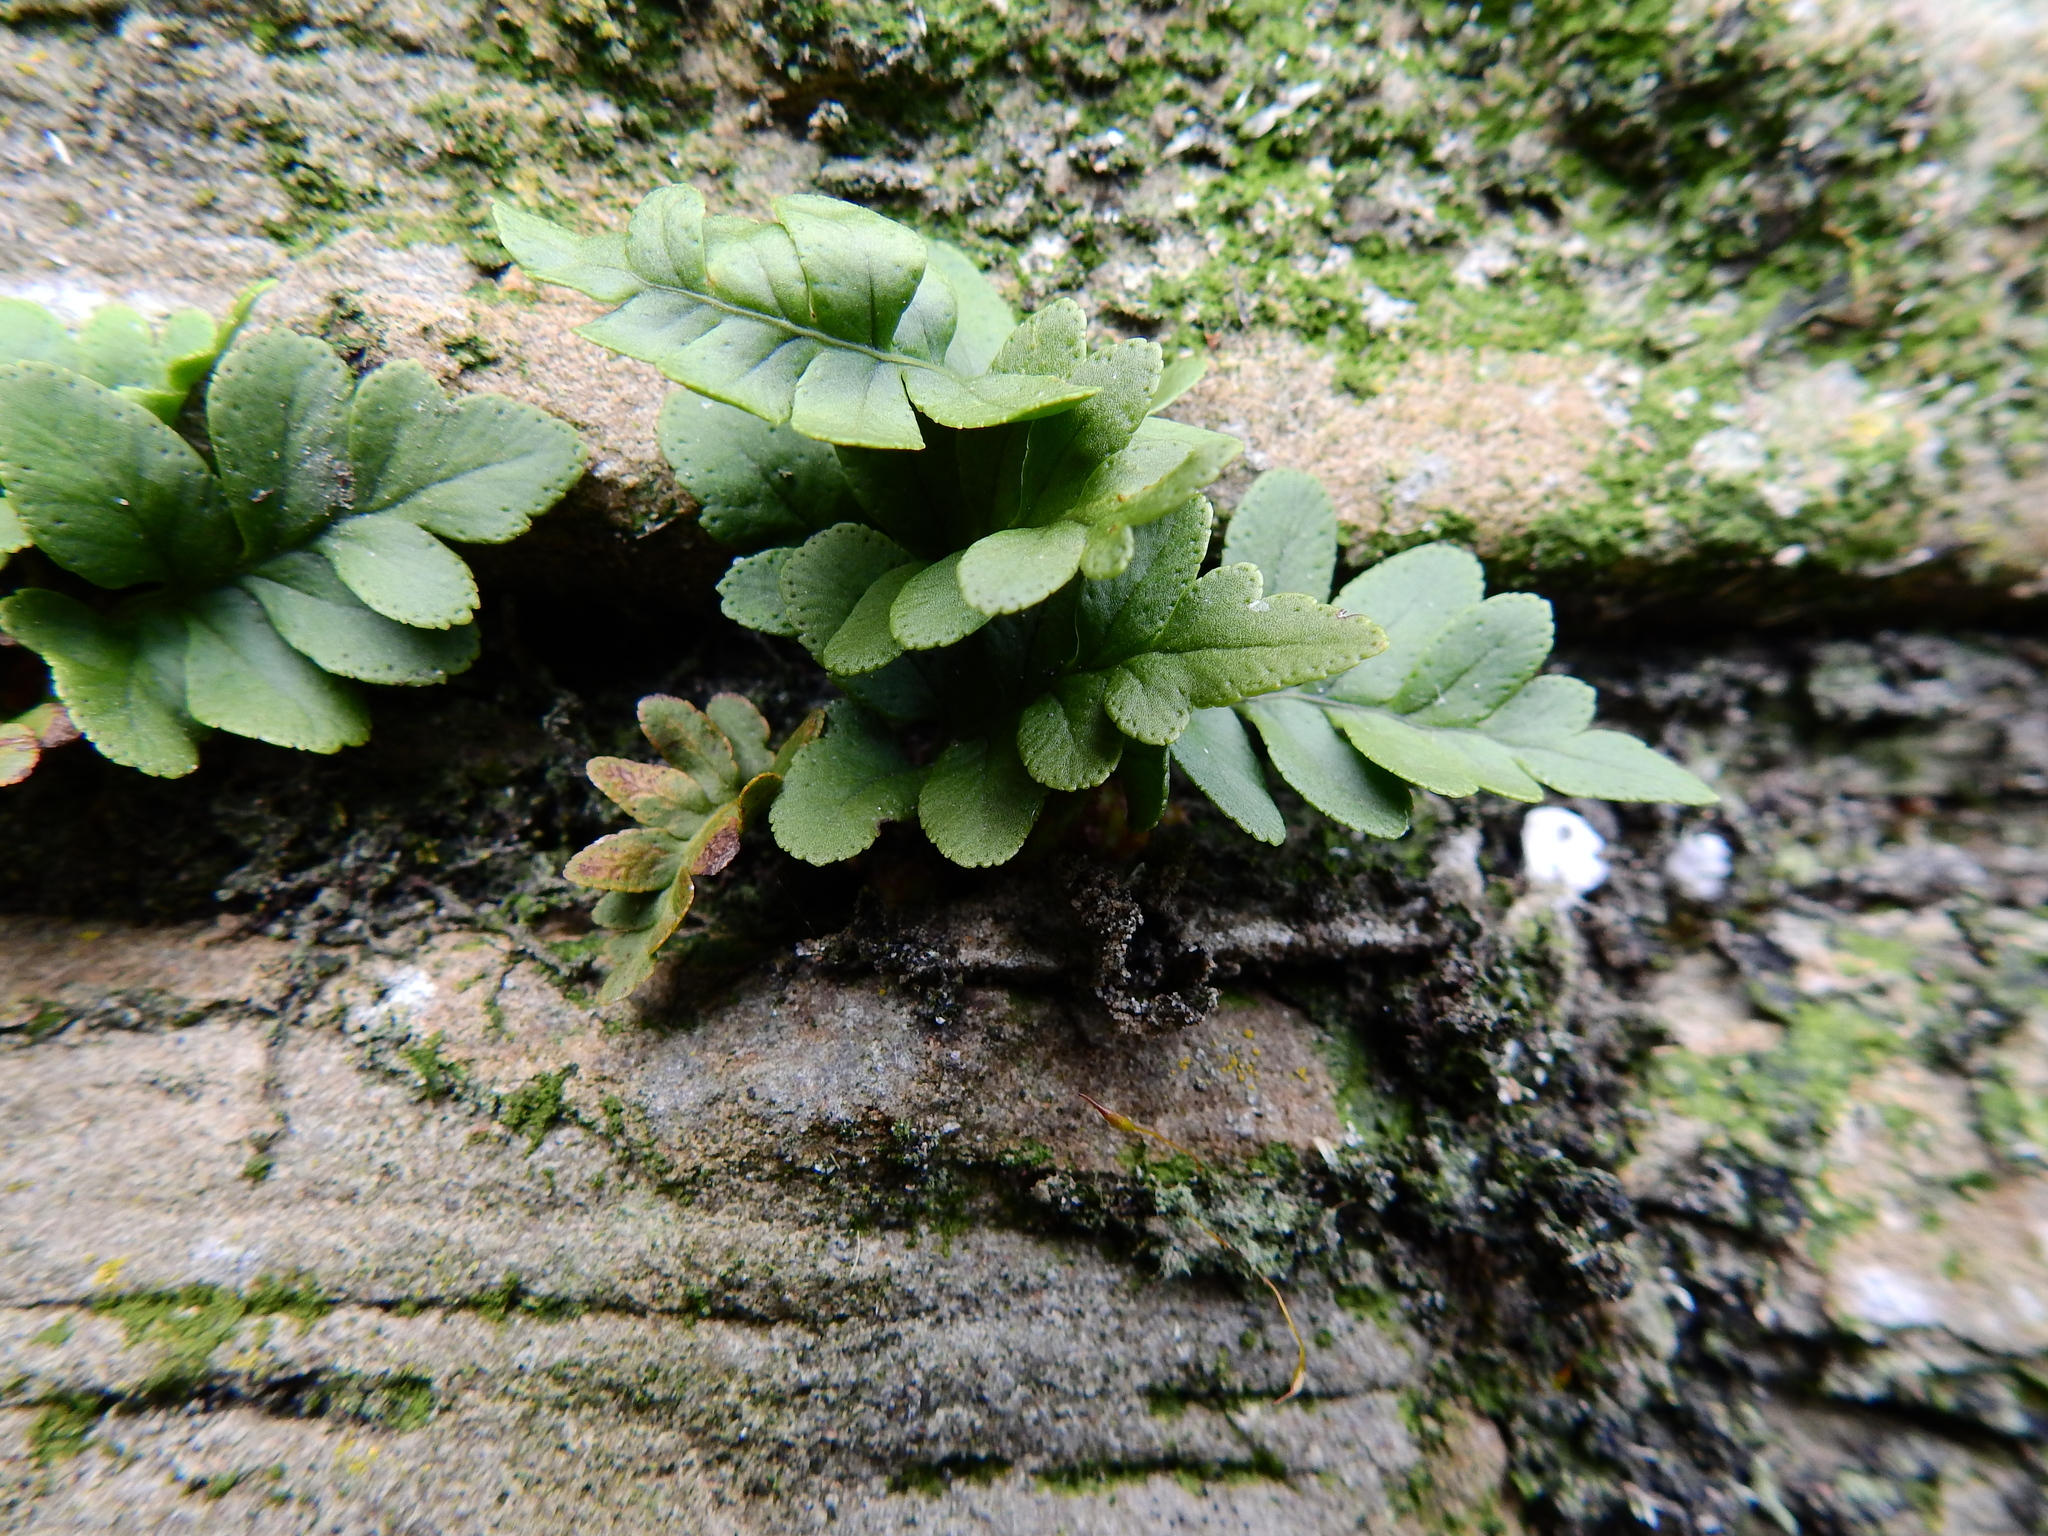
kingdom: Plantae
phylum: Tracheophyta
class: Polypodiopsida
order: Polypodiales
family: Polypodiaceae
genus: Polypodium
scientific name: Polypodium vulgare
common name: Common polypody
